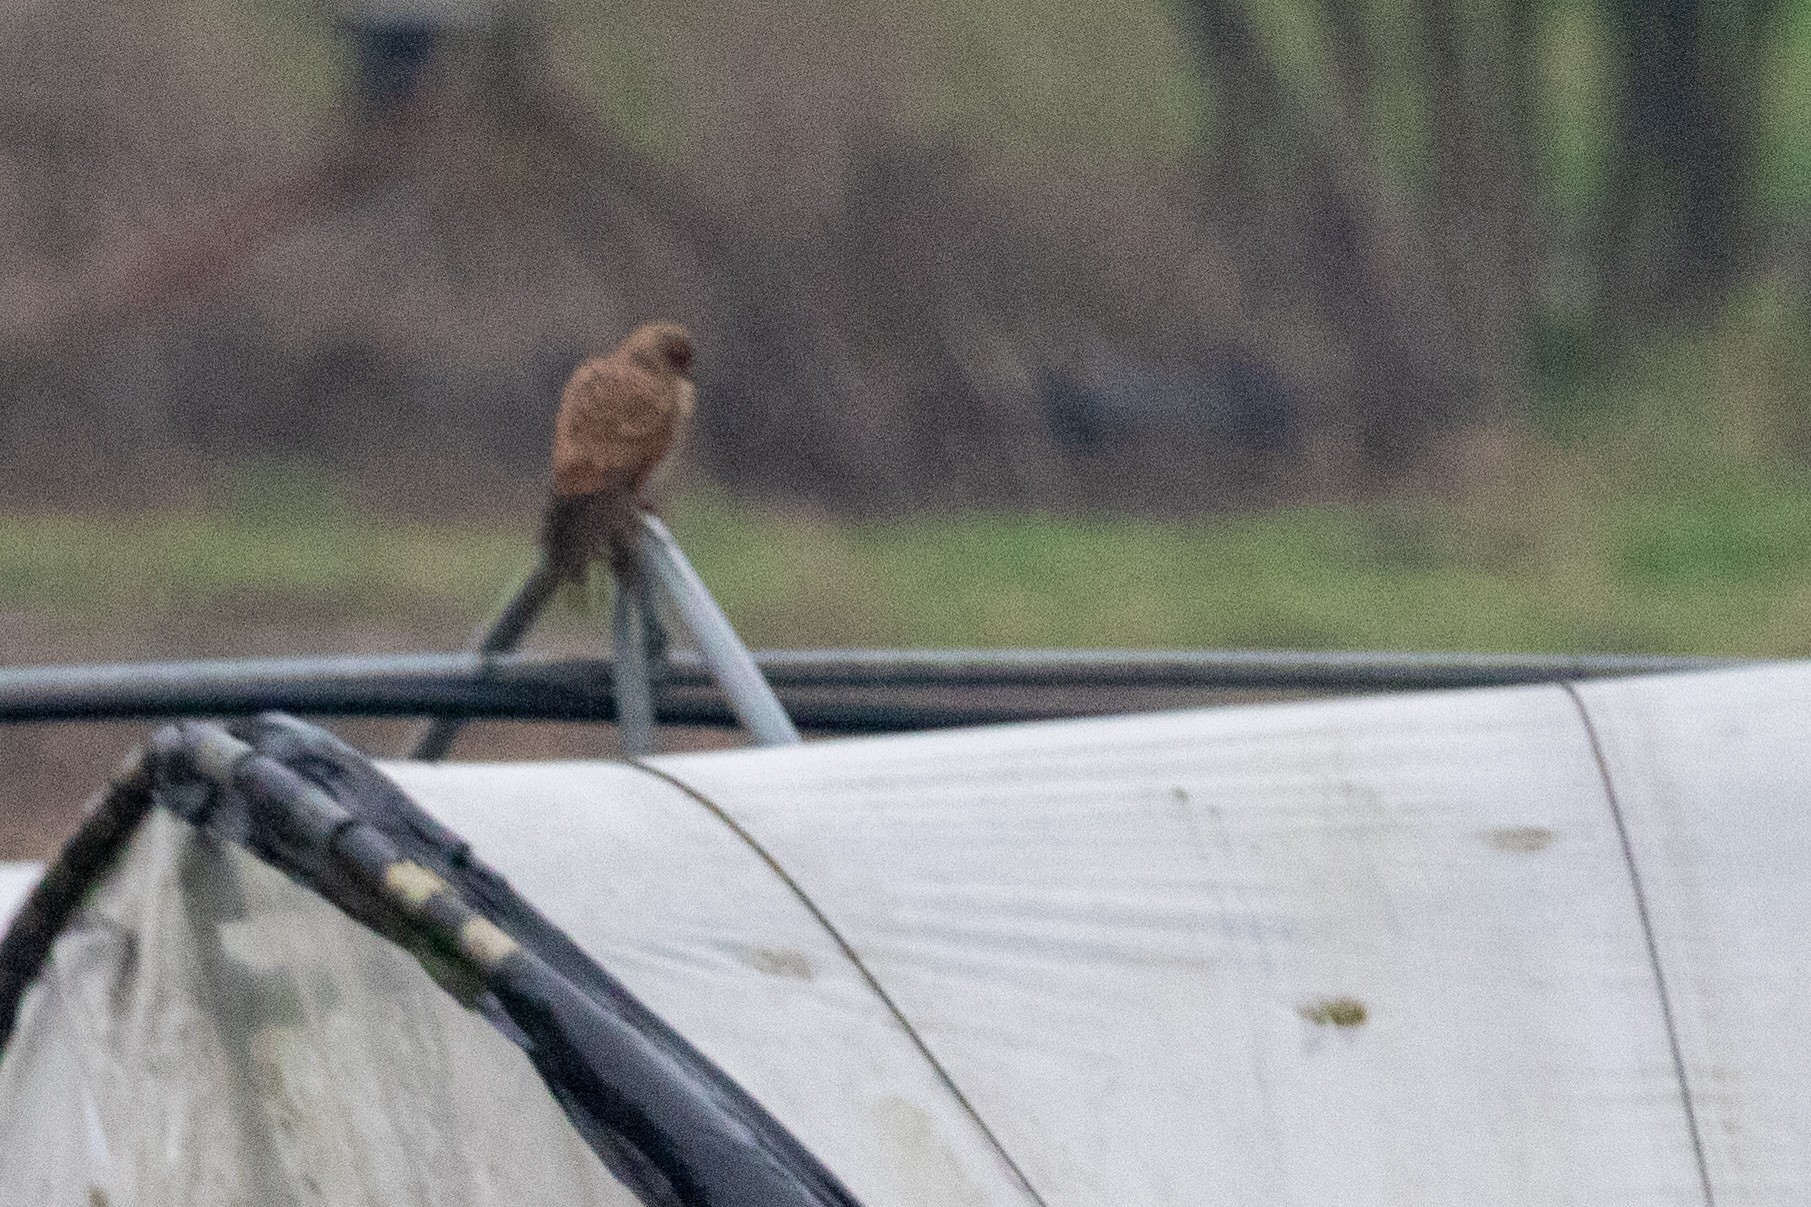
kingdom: Animalia
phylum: Chordata
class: Aves
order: Falconiformes
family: Falconidae
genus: Falco
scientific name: Falco tinnunculus
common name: Common kestrel
